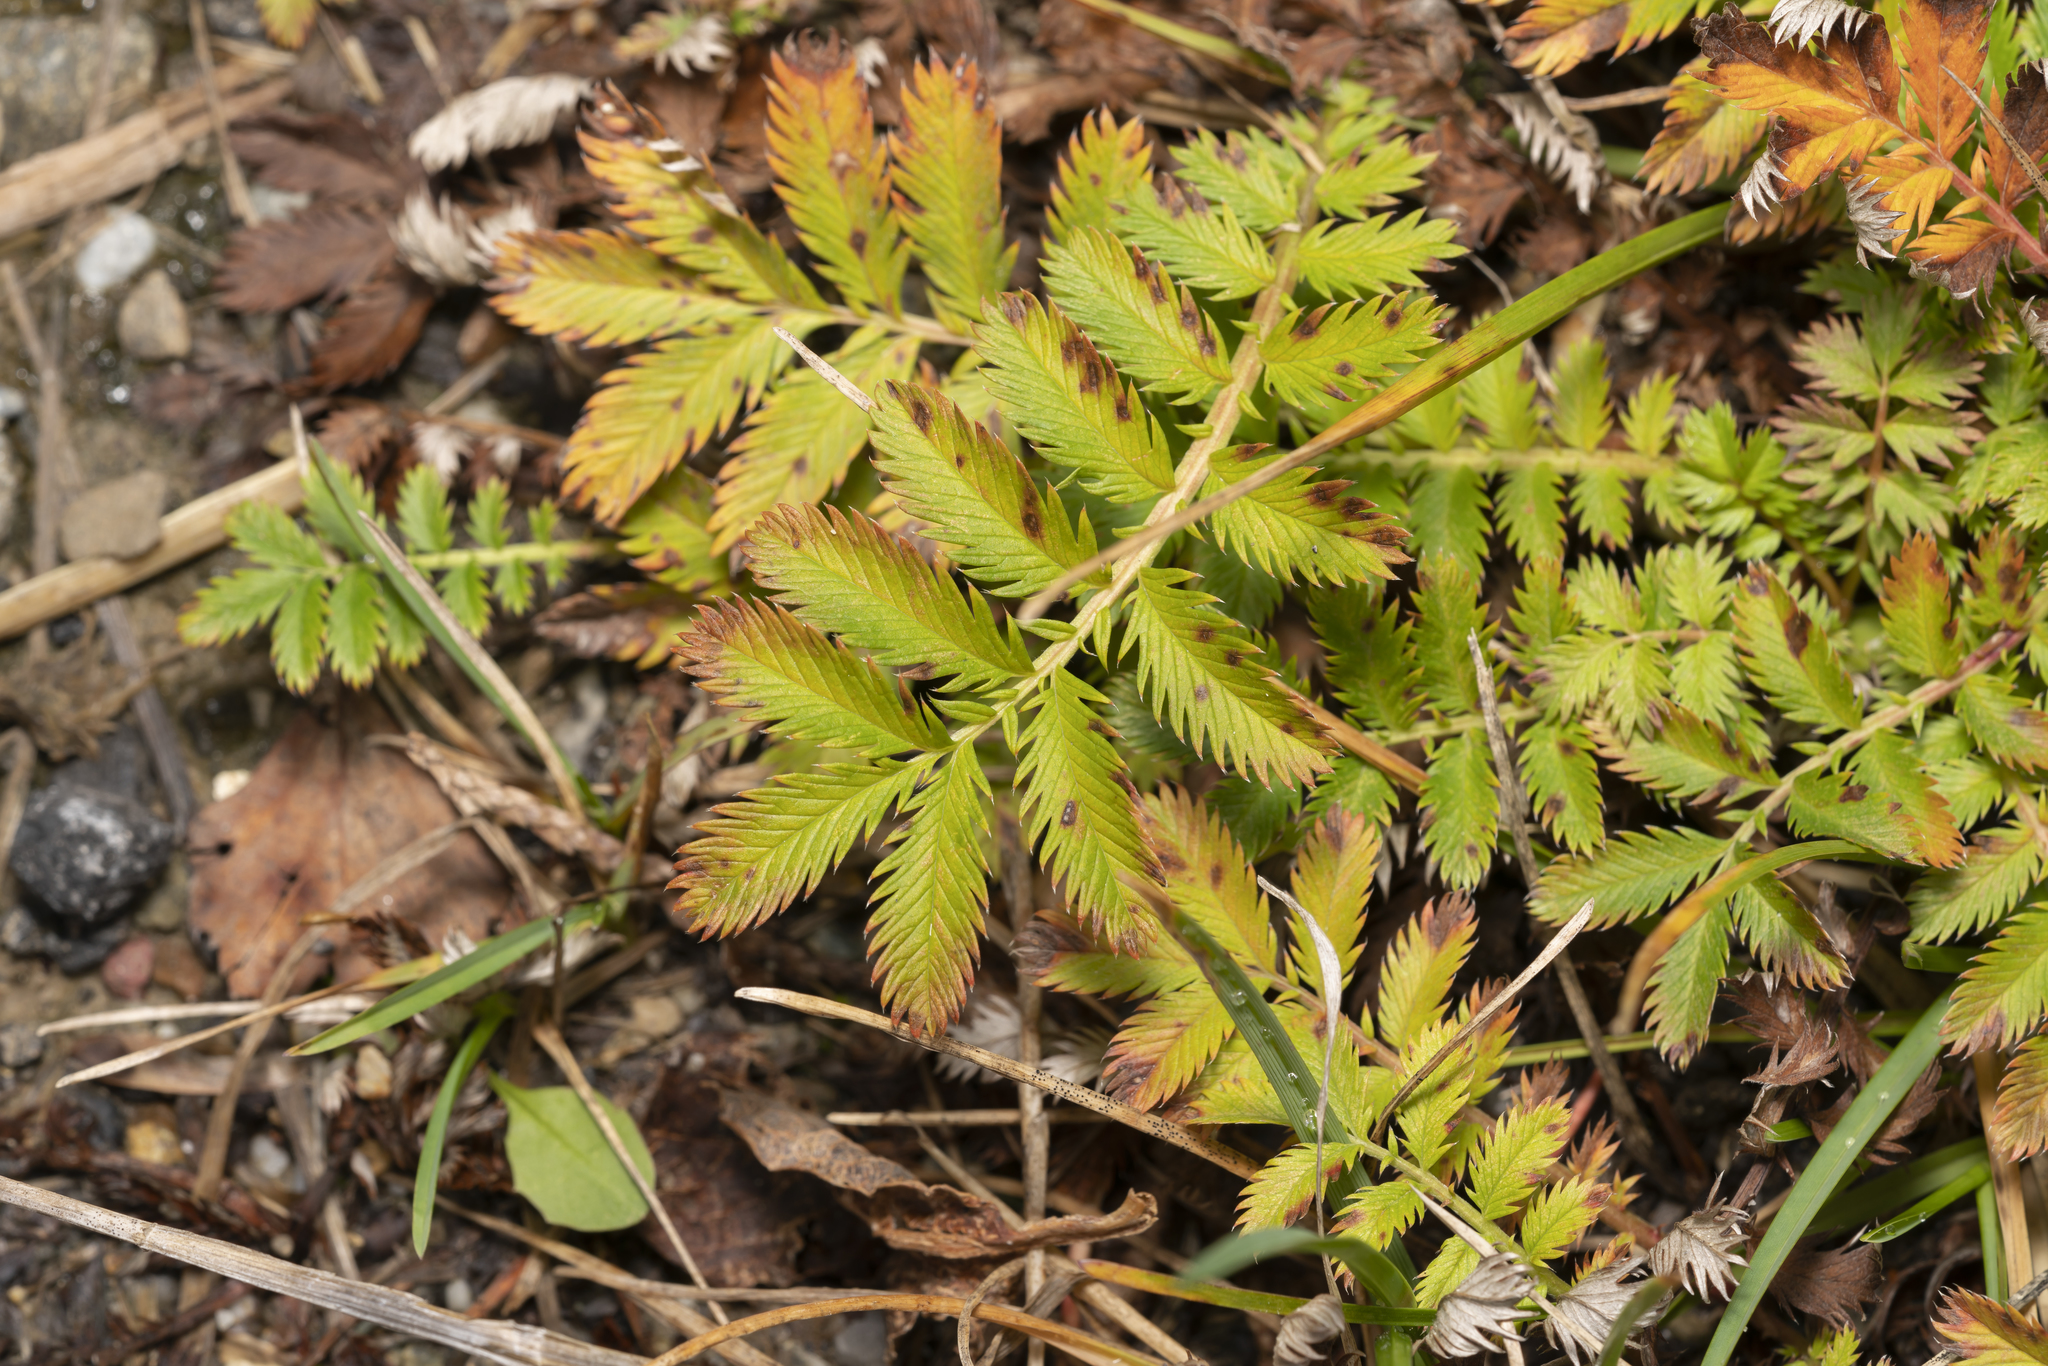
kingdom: Plantae
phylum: Tracheophyta
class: Magnoliopsida
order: Rosales
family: Rosaceae
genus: Argentina
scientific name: Argentina anserina
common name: Common silverweed
